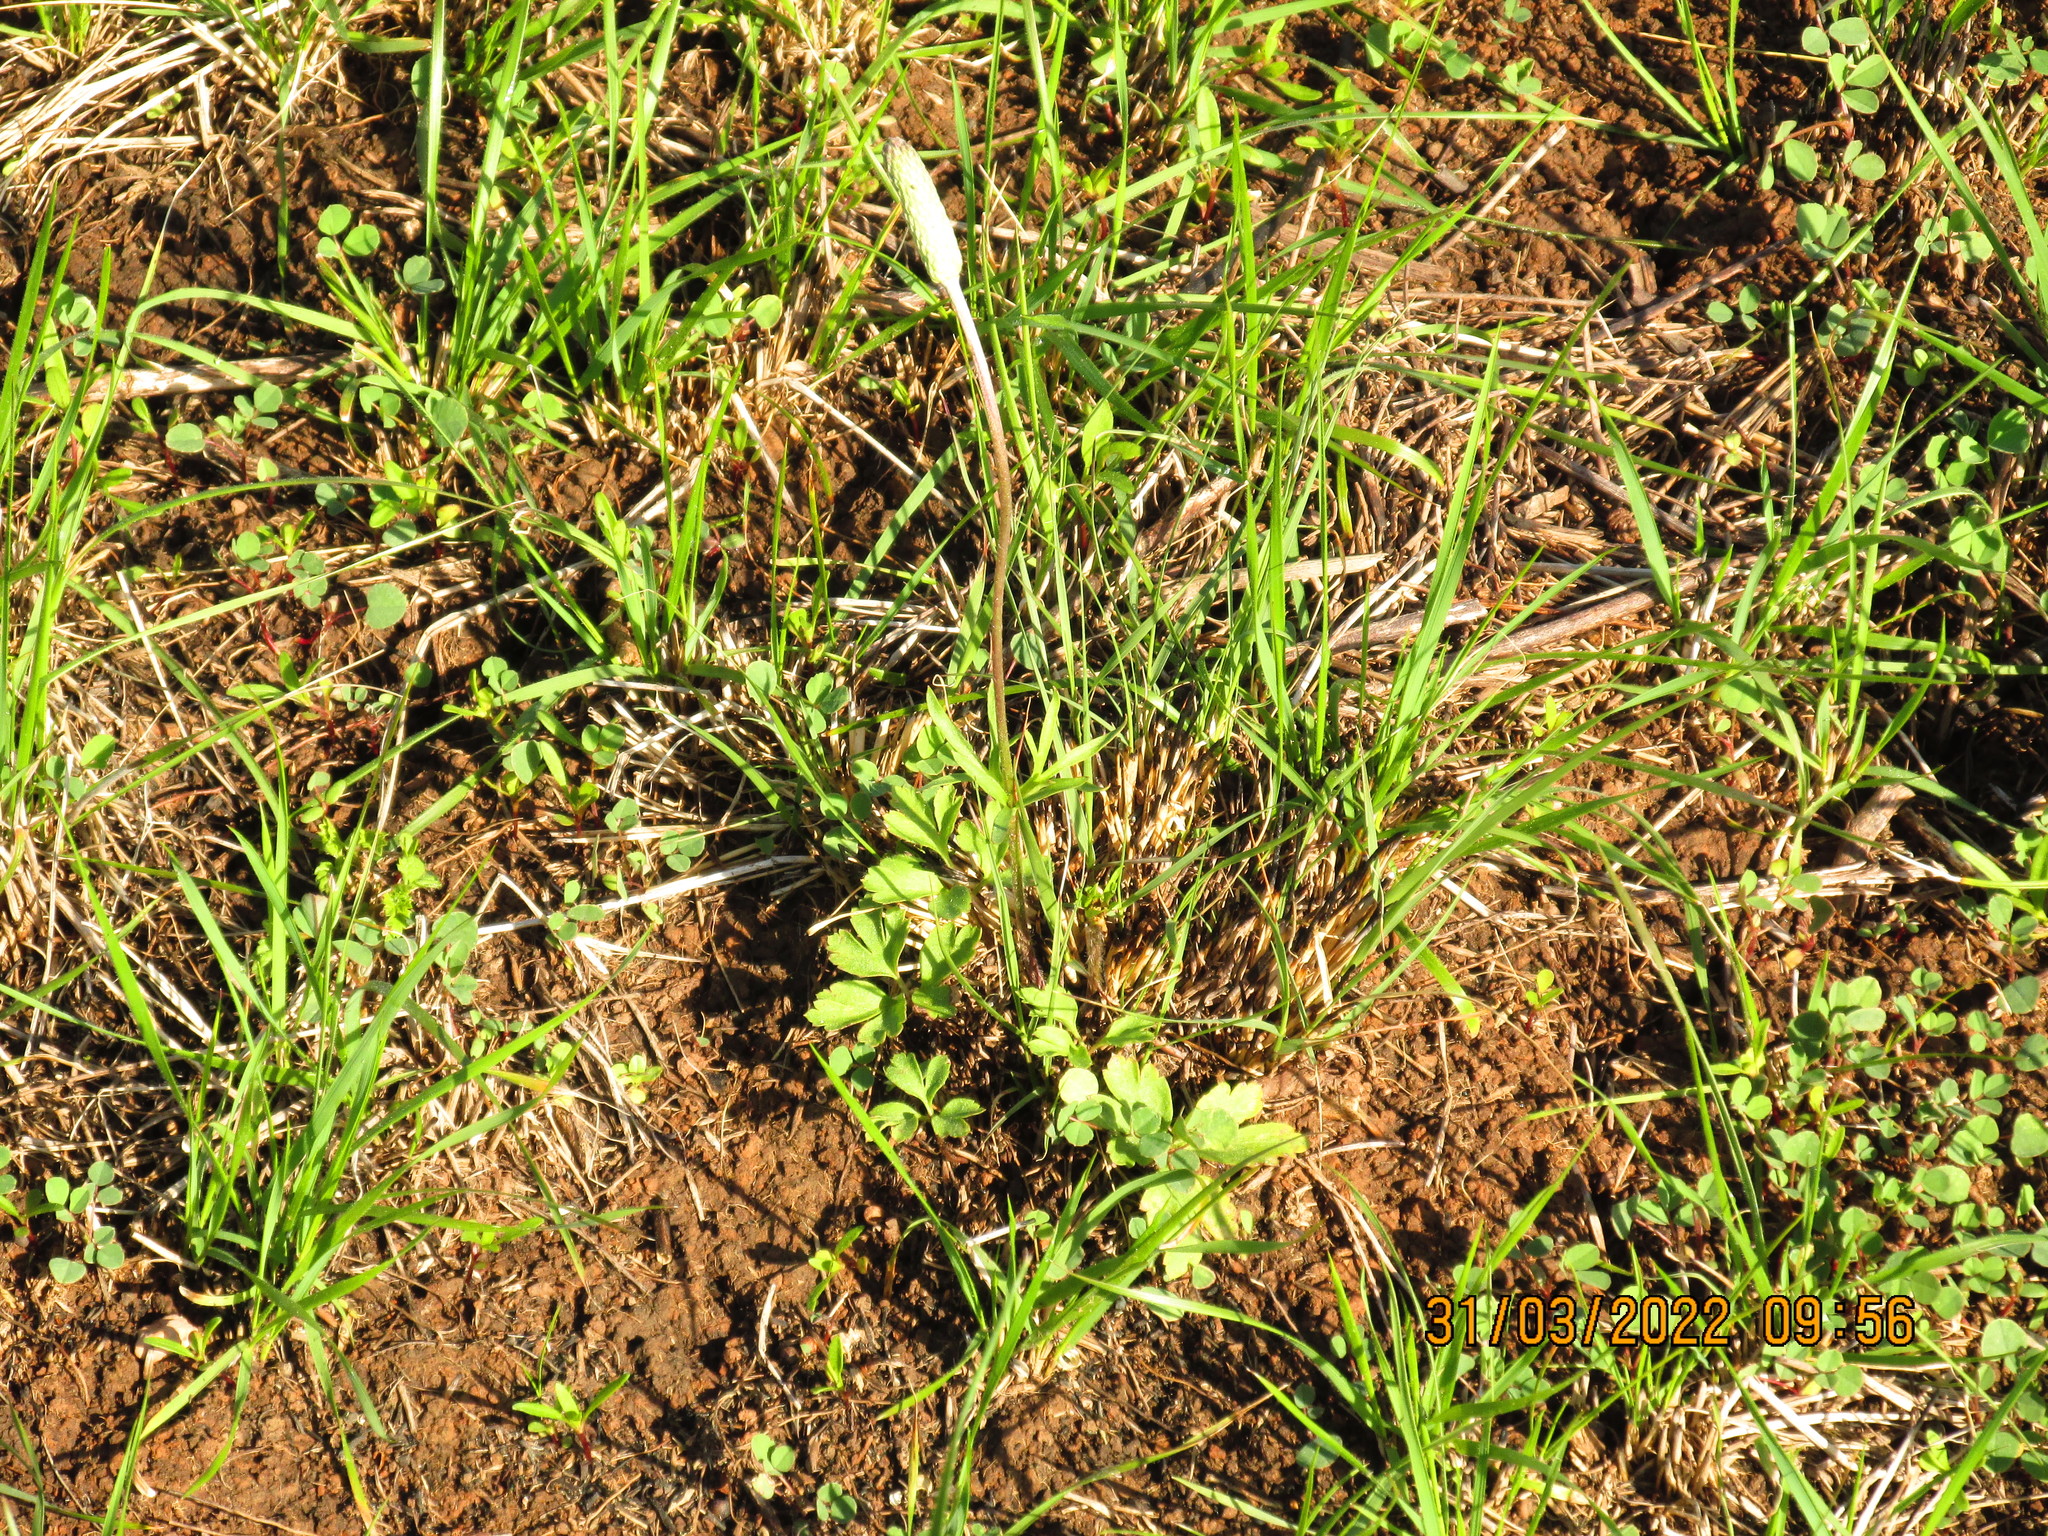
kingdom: Plantae
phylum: Tracheophyta
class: Magnoliopsida
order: Ranunculales
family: Ranunculaceae
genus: Anemone
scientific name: Anemone berlandieri
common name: Ten-petal anemone
